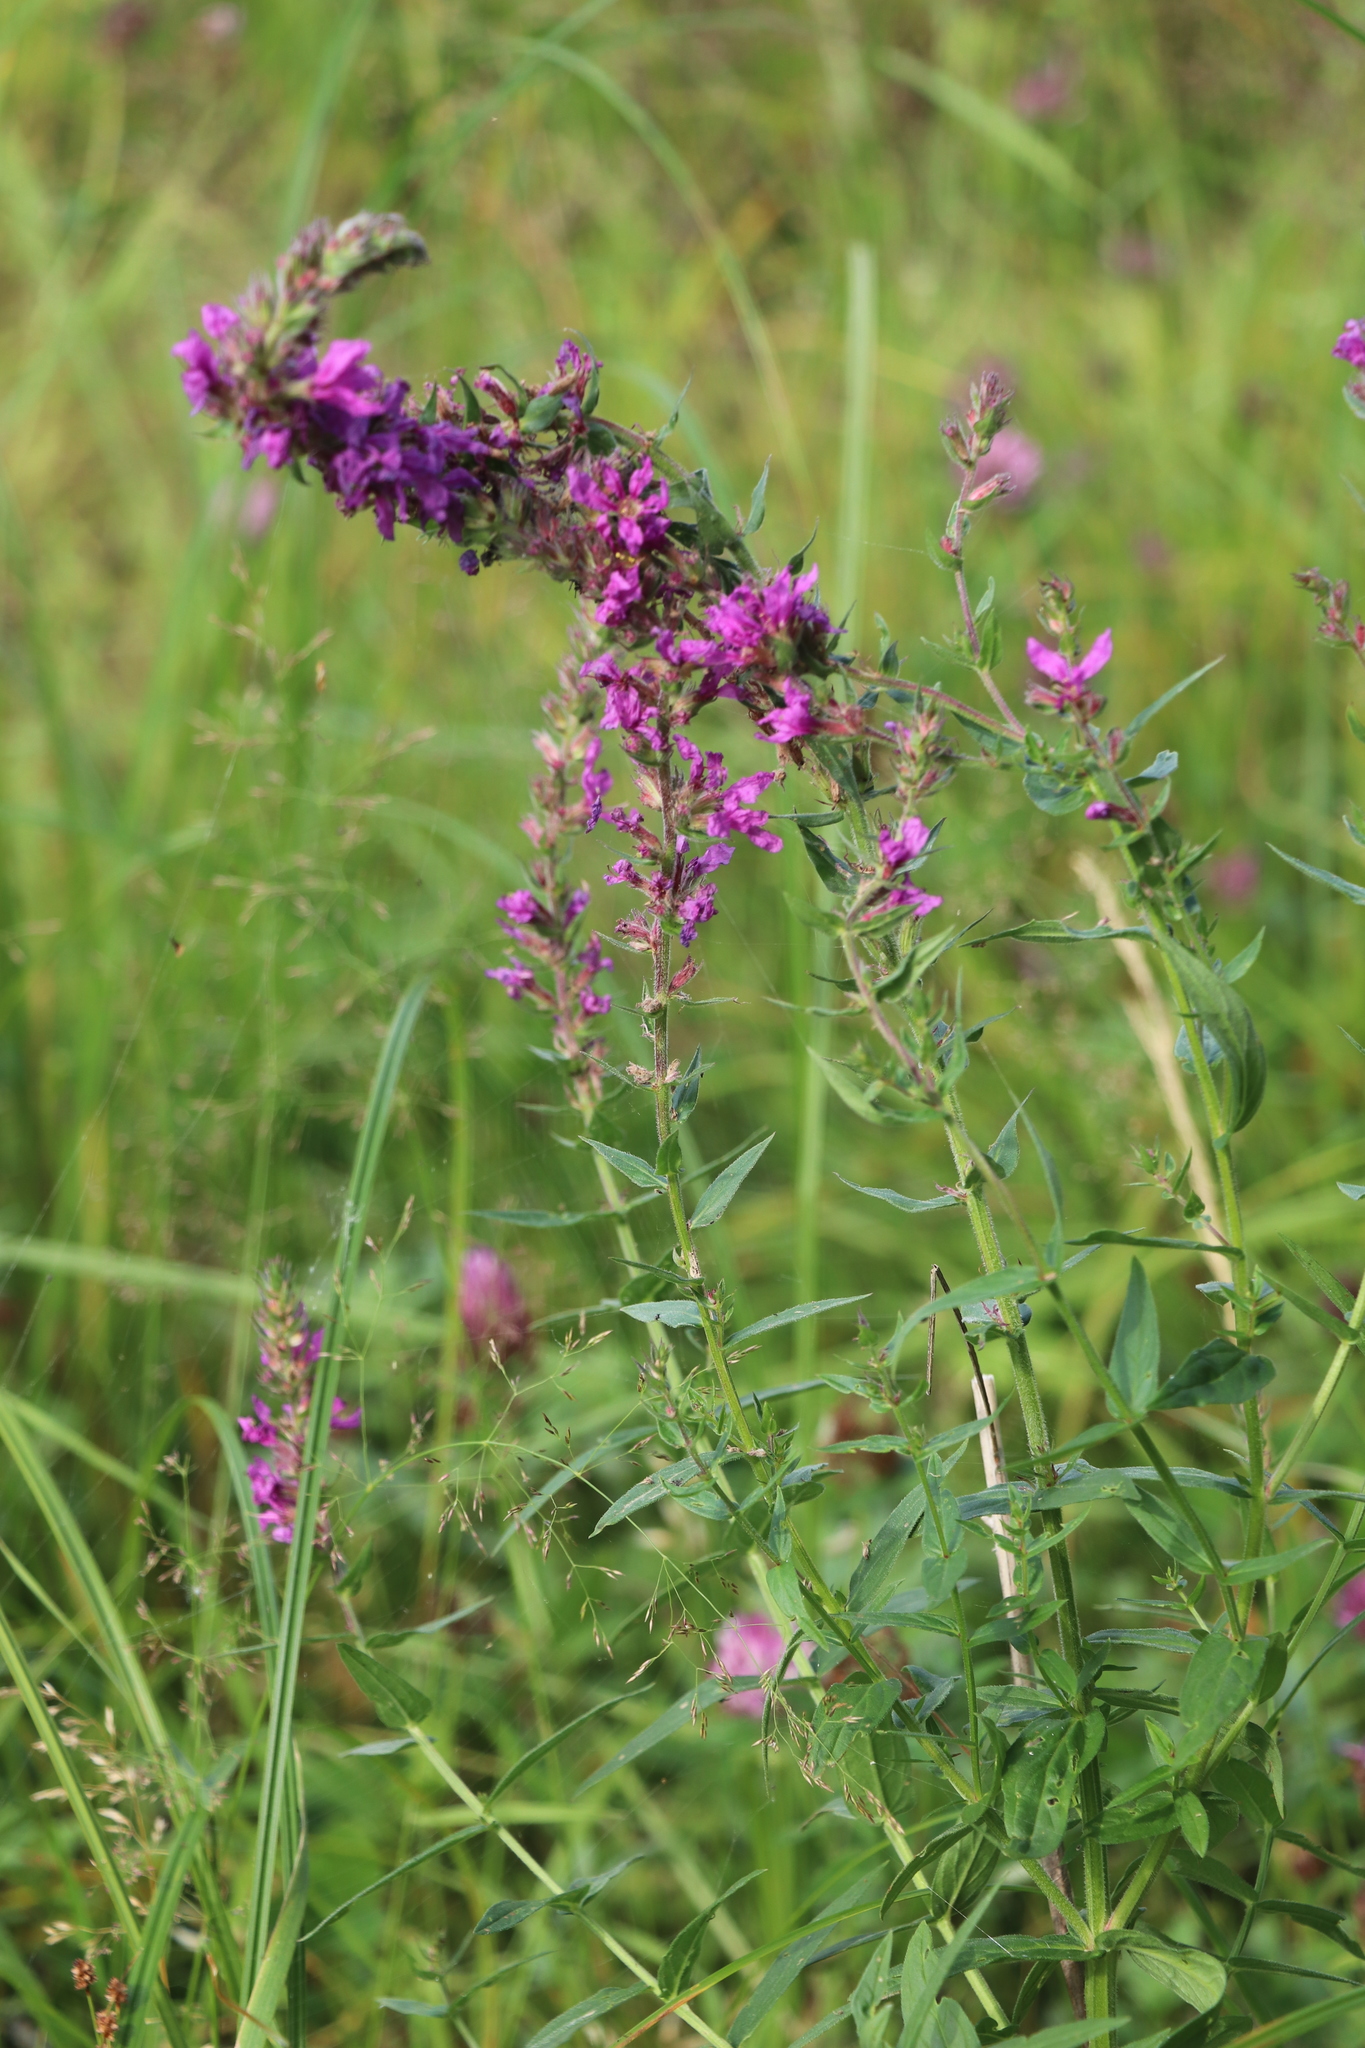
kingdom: Plantae
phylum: Tracheophyta
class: Magnoliopsida
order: Myrtales
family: Lythraceae
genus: Lythrum
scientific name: Lythrum salicaria
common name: Purple loosestrife
